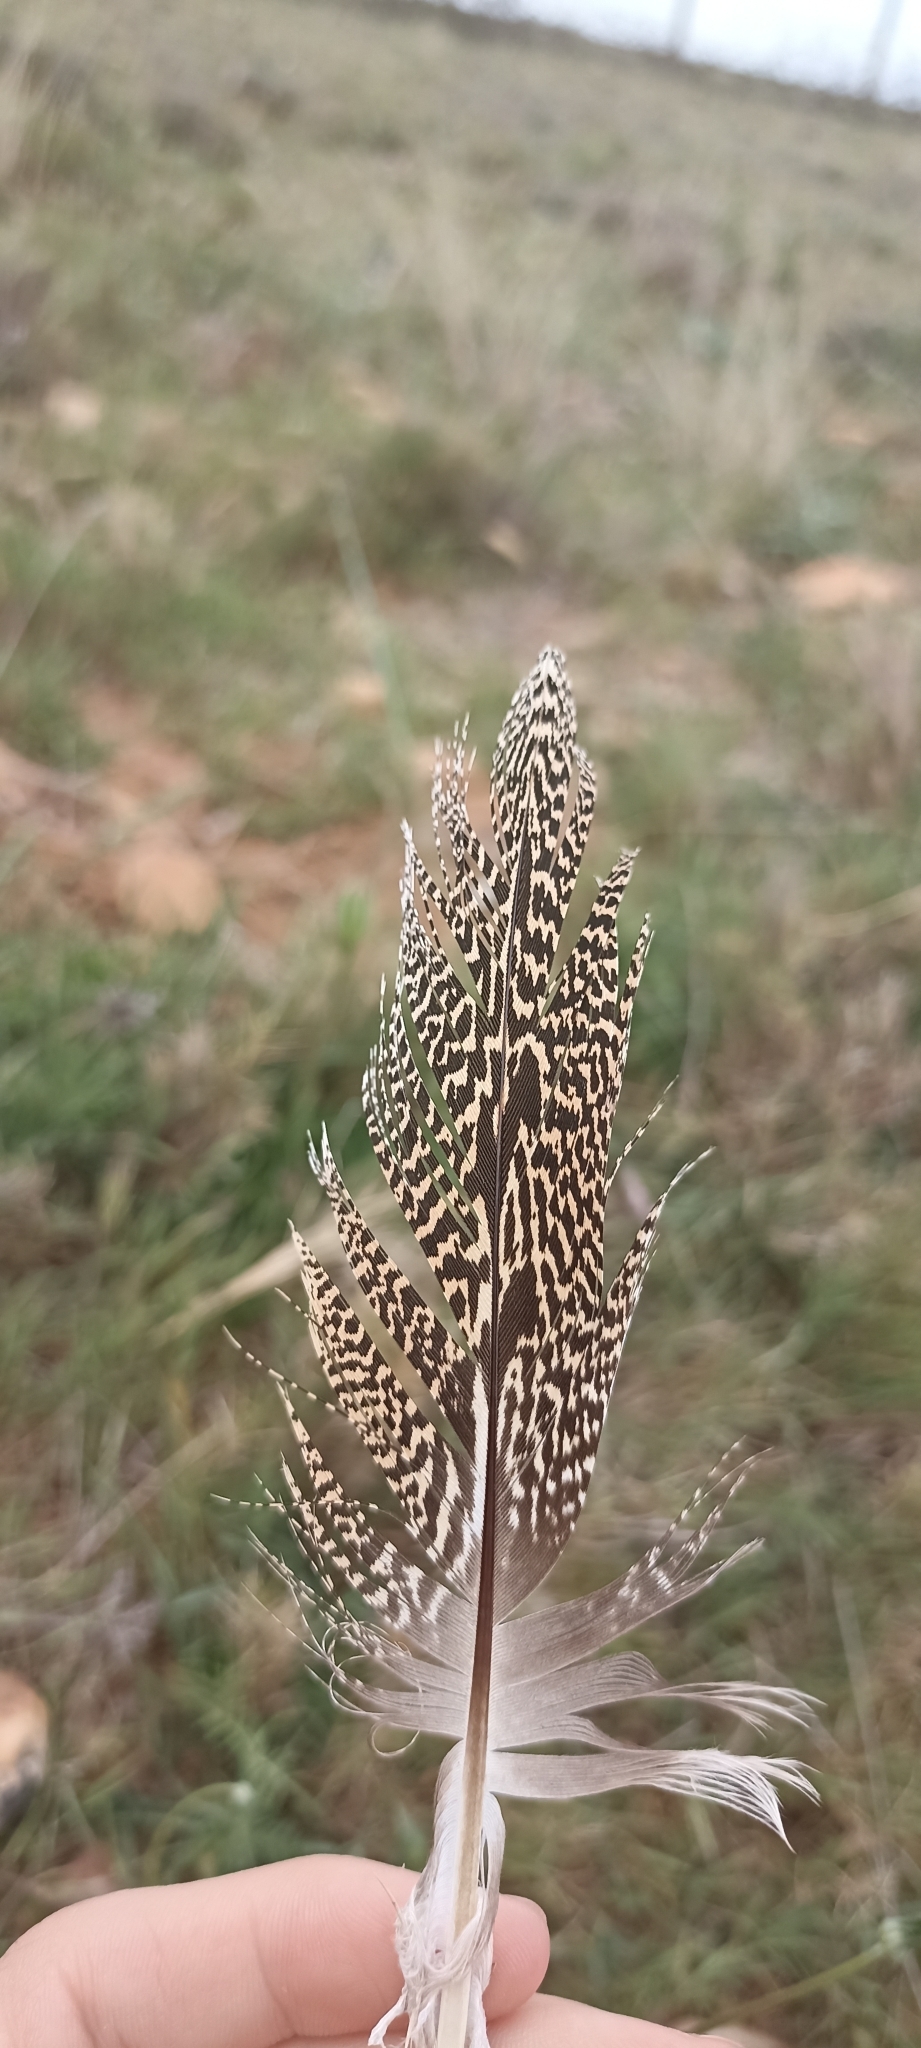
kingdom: Animalia
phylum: Chordata
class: Aves
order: Otidiformes
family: Otididae
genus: Tetrax
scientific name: Tetrax tetrax
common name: Little bustard
